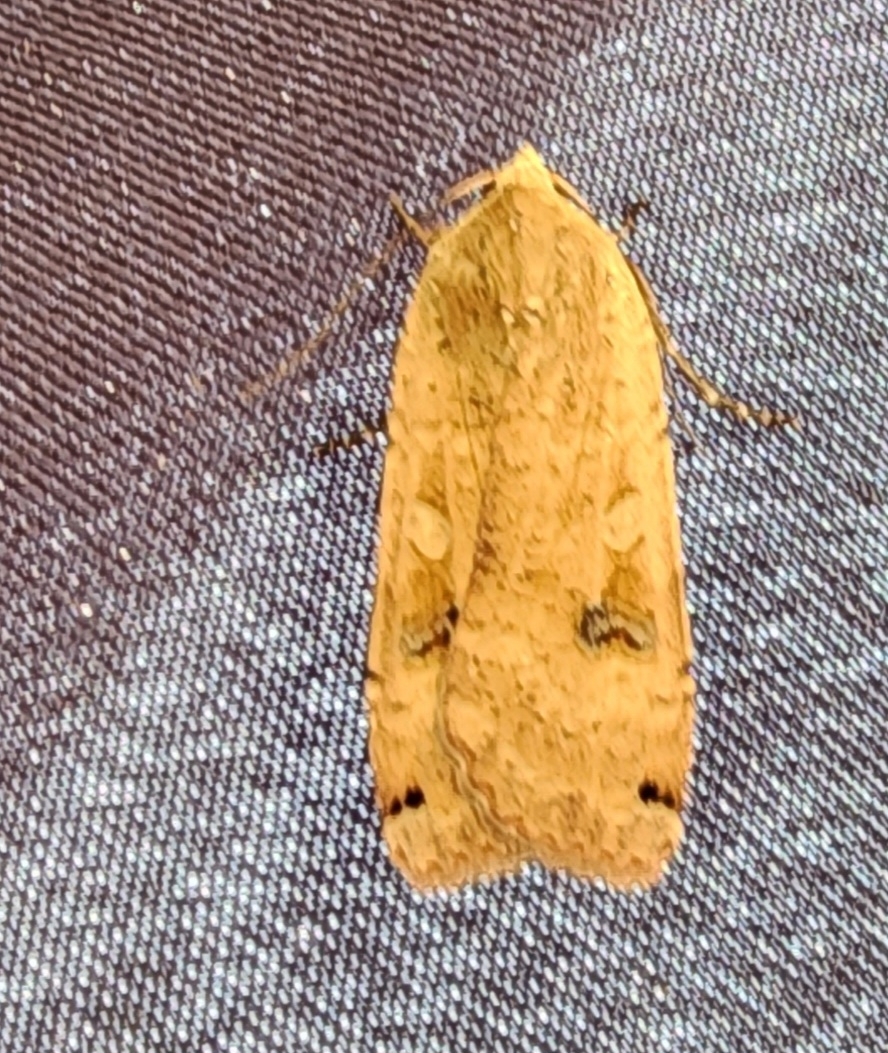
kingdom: Animalia
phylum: Arthropoda
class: Insecta
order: Lepidoptera
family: Noctuidae
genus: Noctua
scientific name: Noctua pronuba
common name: Large yellow underwing
